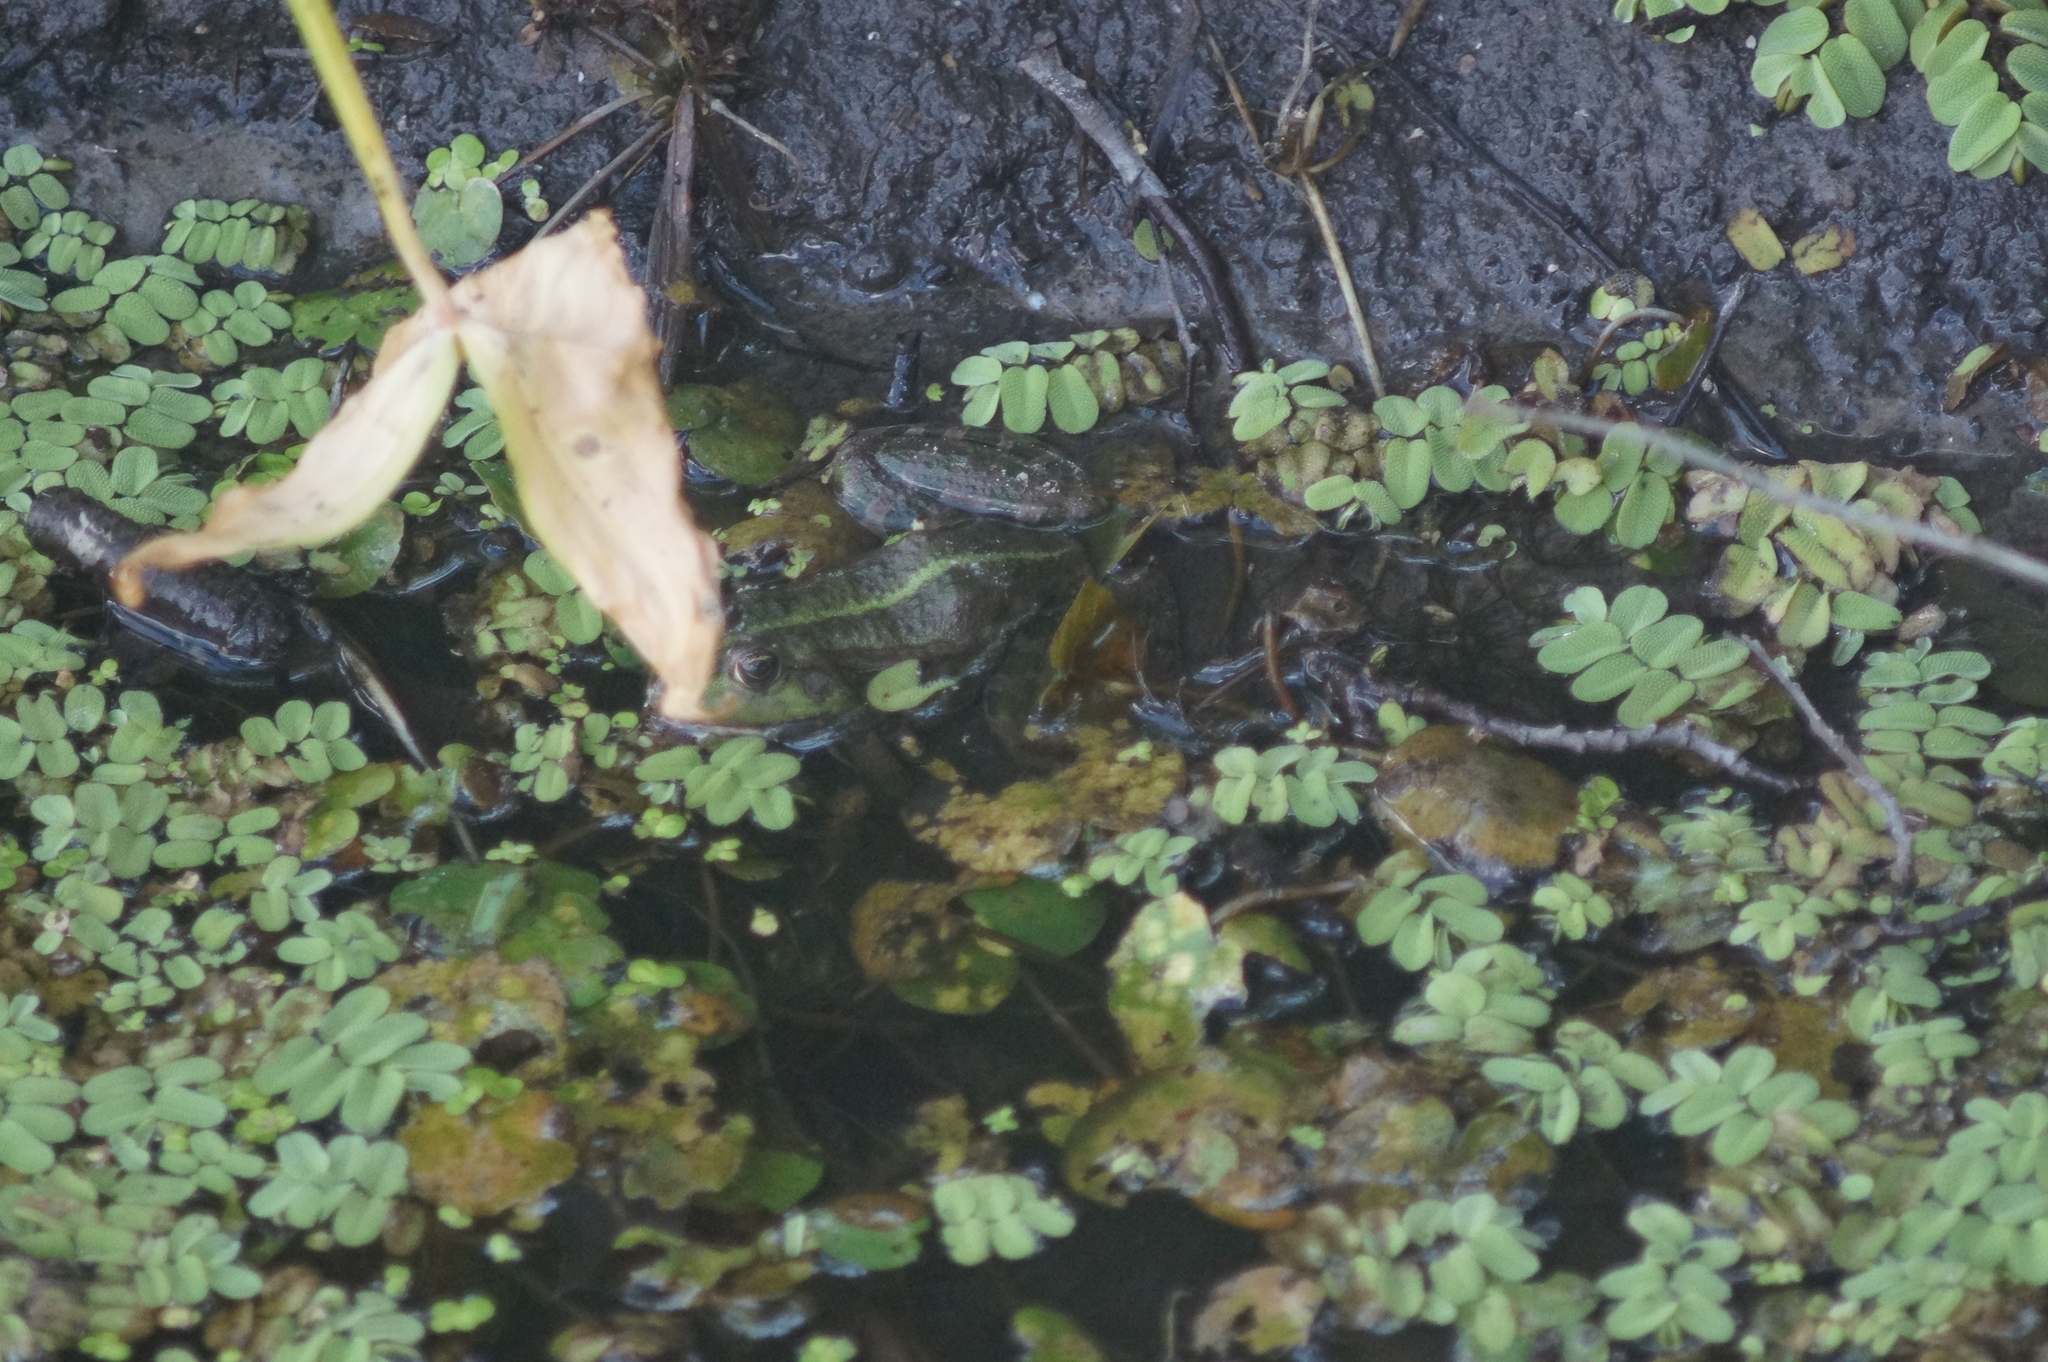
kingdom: Animalia
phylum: Chordata
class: Amphibia
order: Anura
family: Ranidae
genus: Pelophylax
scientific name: Pelophylax ridibundus
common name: Marsh frog
